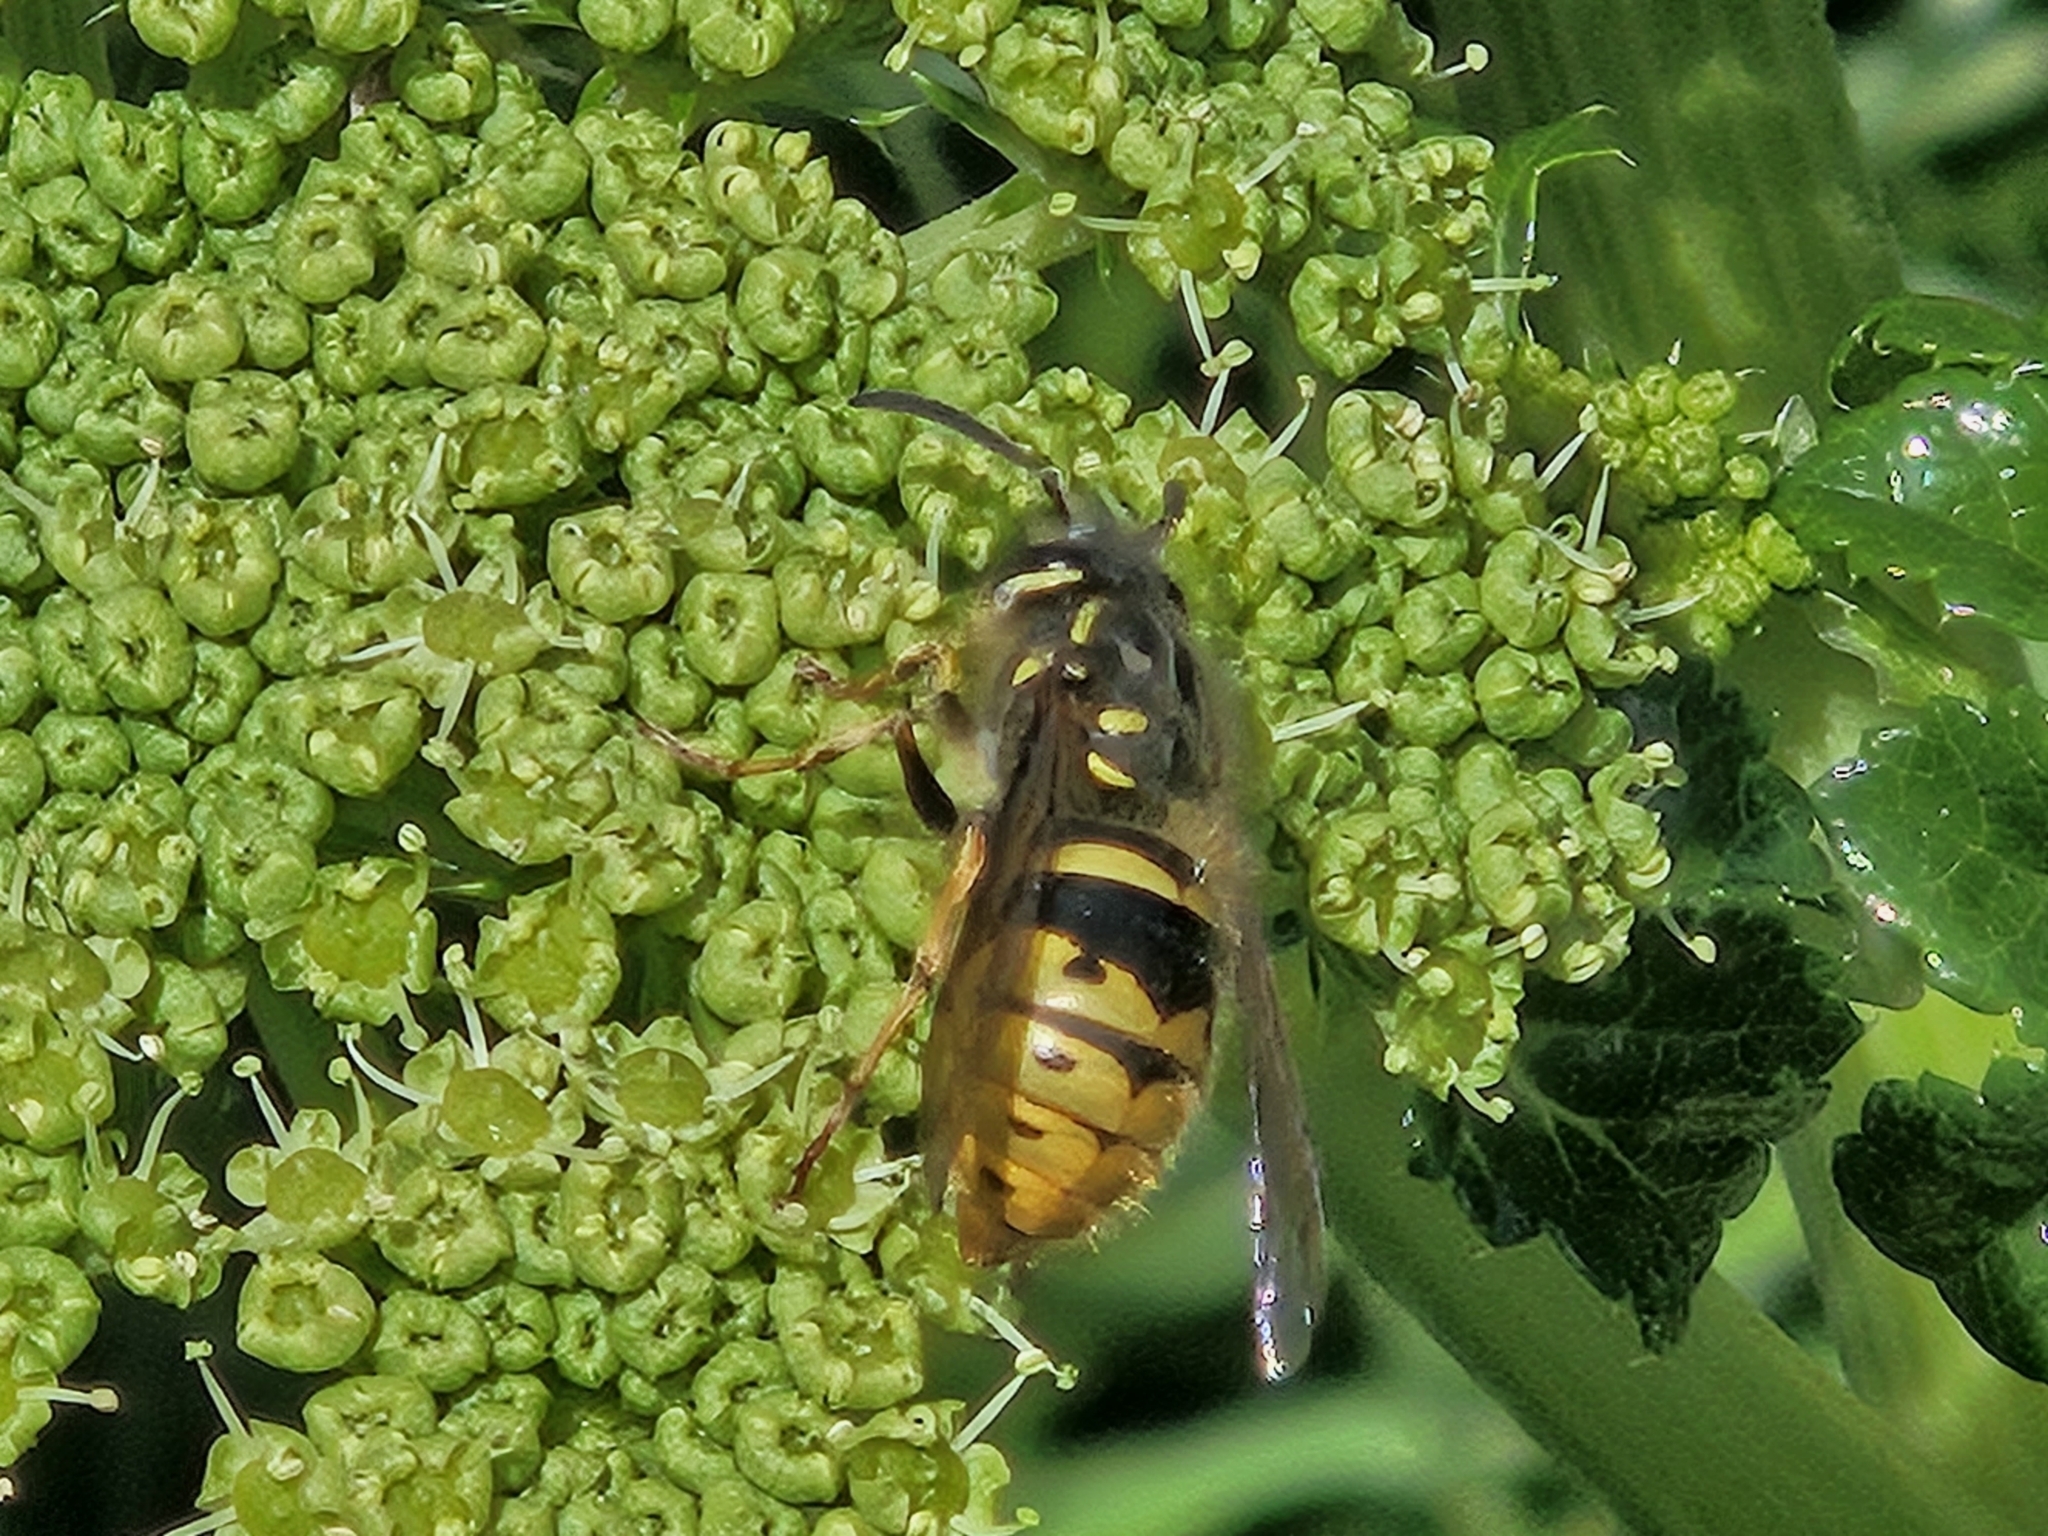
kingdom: Animalia
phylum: Arthropoda
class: Insecta
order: Hymenoptera
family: Vespidae
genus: Vespula
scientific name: Vespula vulgaris
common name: Common wasp
